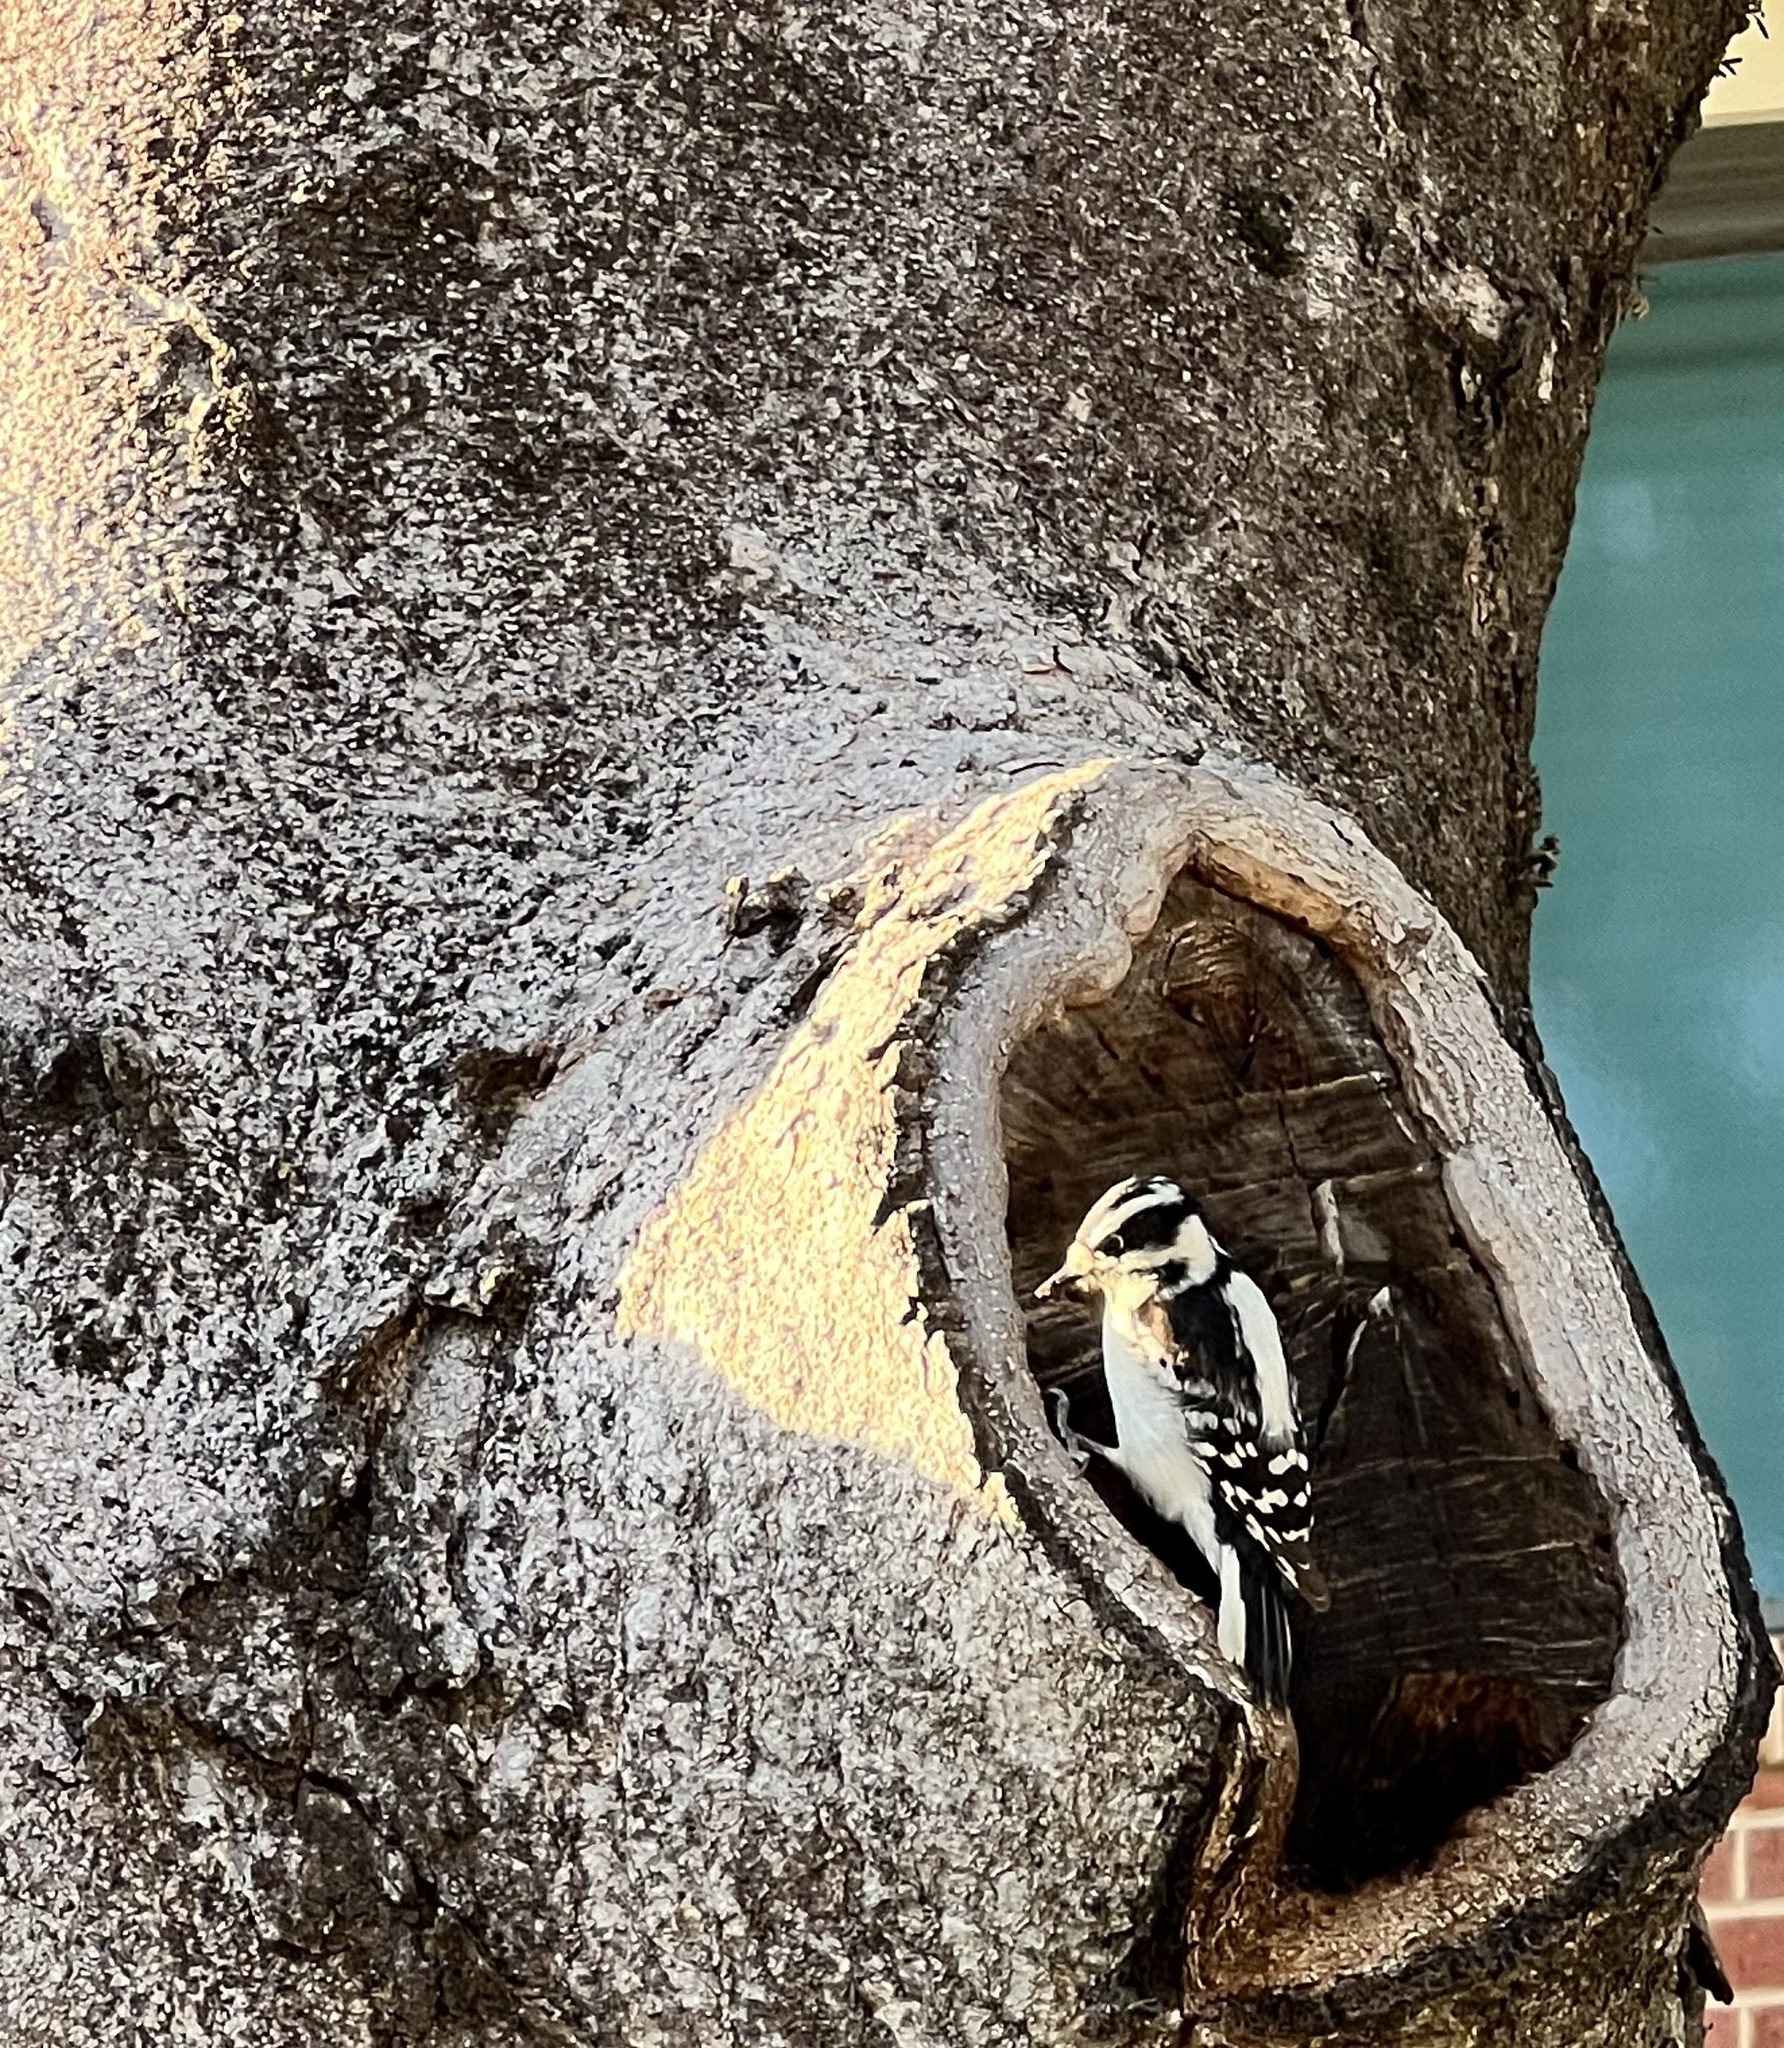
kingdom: Animalia
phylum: Chordata
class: Aves
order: Piciformes
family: Picidae
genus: Dryobates
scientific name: Dryobates pubescens
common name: Downy woodpecker
